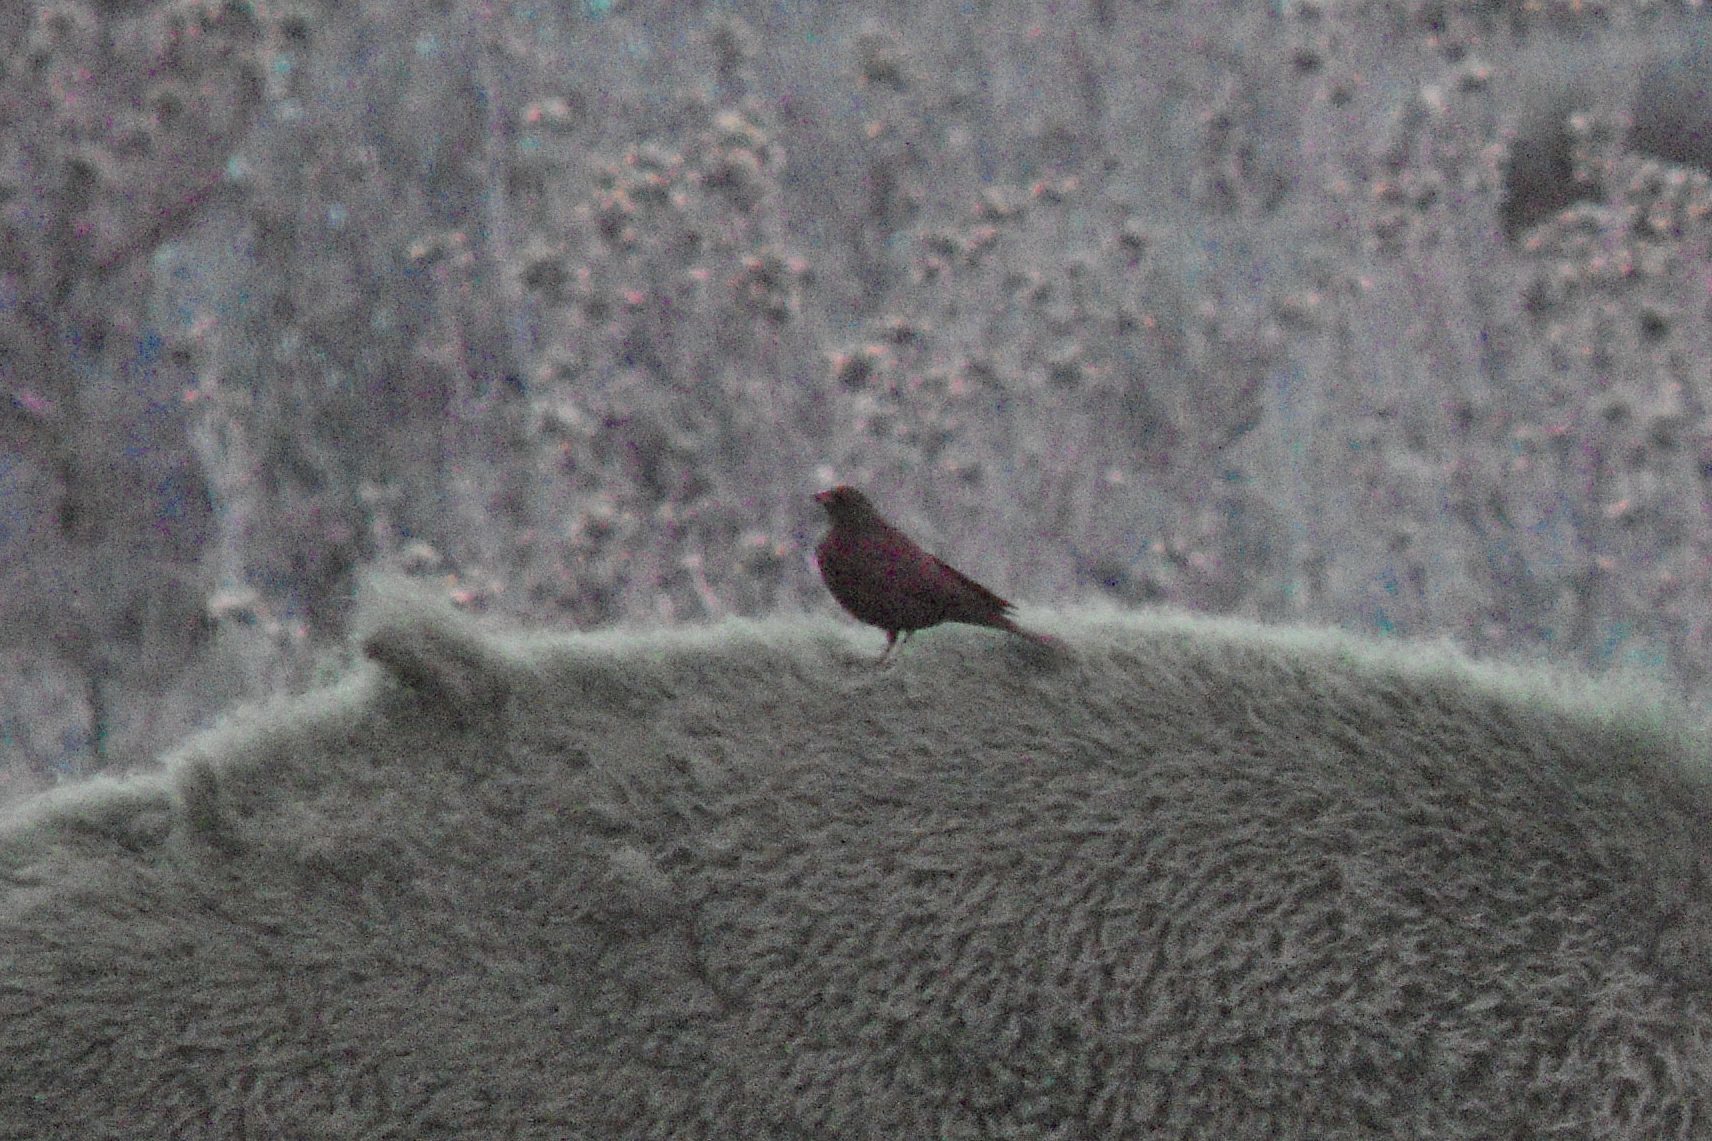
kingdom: Animalia
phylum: Chordata
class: Aves
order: Passeriformes
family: Icteridae
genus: Molothrus
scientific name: Molothrus ater
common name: Brown-headed cowbird
